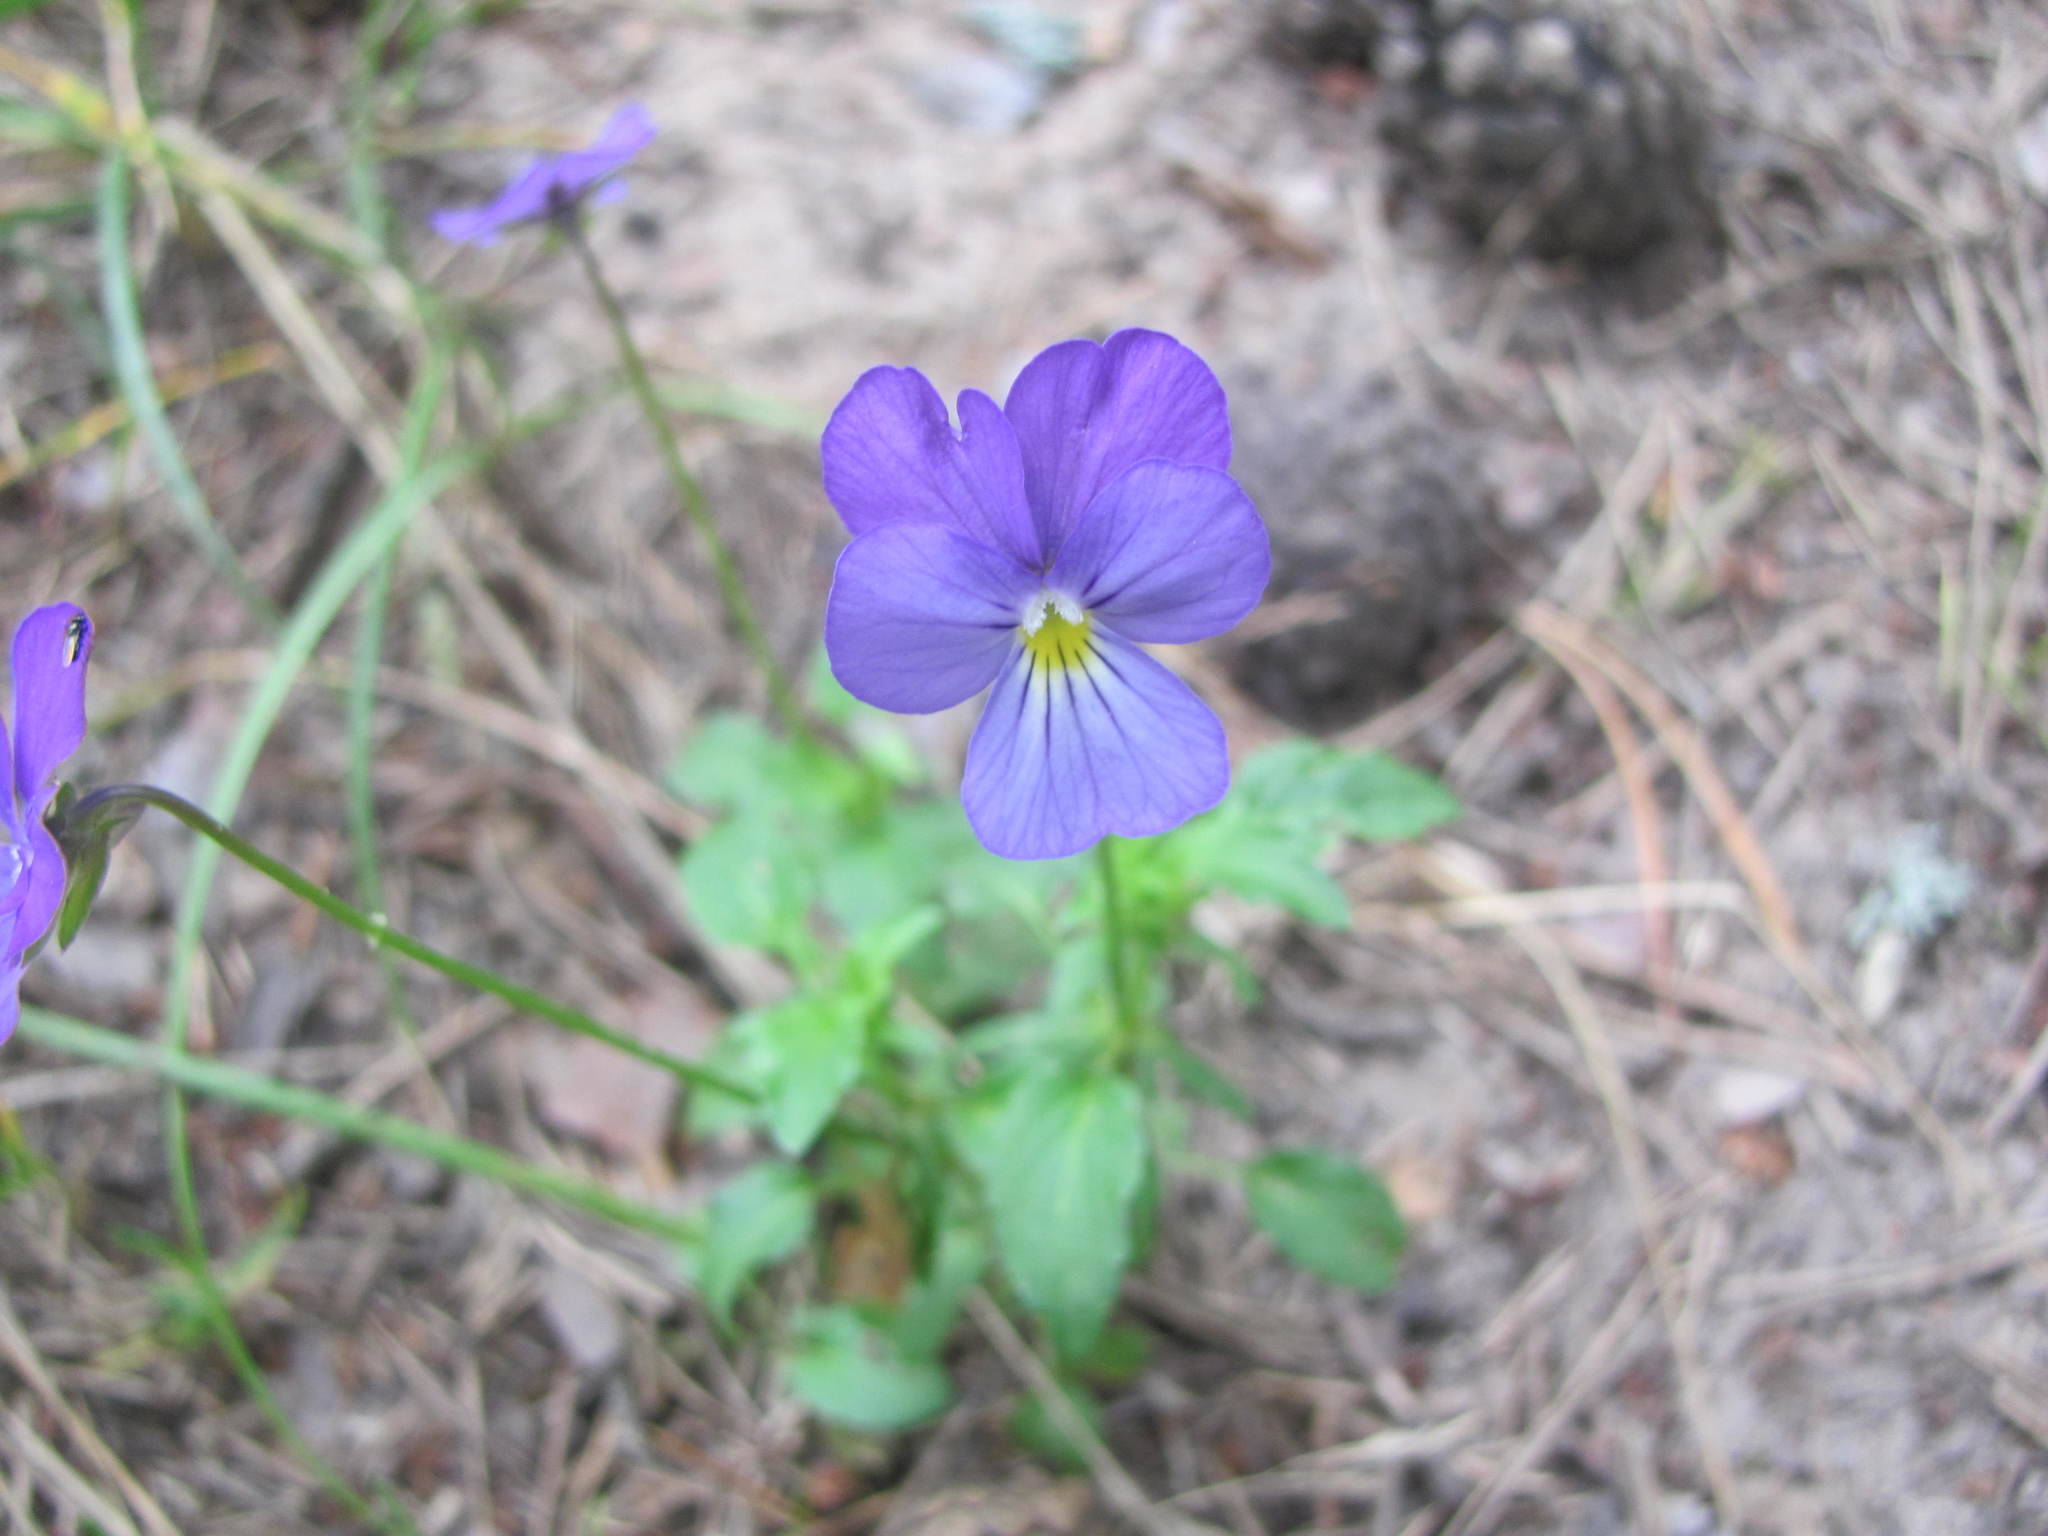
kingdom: Plantae
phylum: Tracheophyta
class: Magnoliopsida
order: Malpighiales
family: Violaceae
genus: Viola
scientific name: Viola tricolor
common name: Pansy
